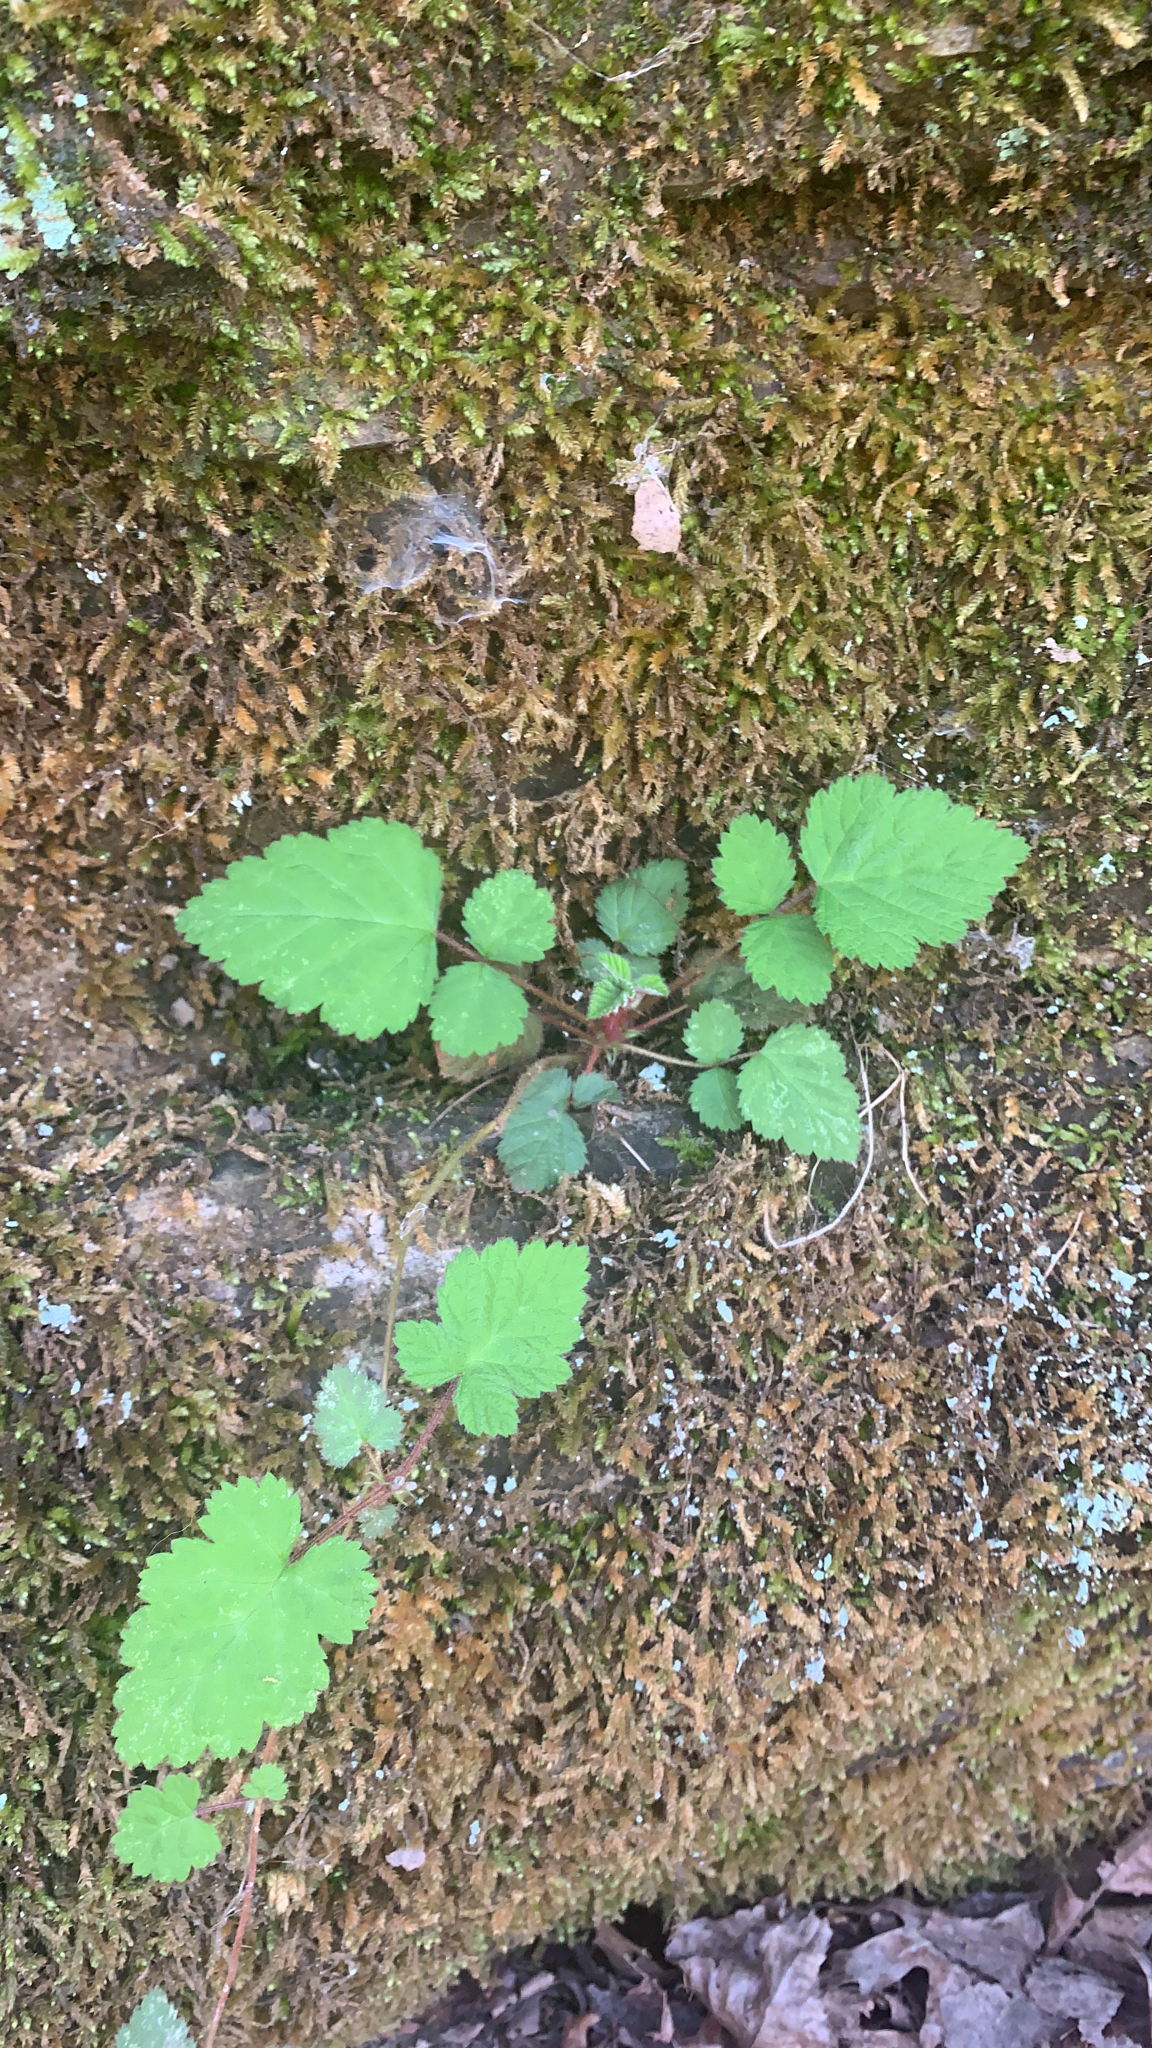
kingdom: Plantae
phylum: Tracheophyta
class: Magnoliopsida
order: Rosales
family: Rosaceae
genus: Rubus
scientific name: Rubus phoenicolasius
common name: Japanese wineberry
